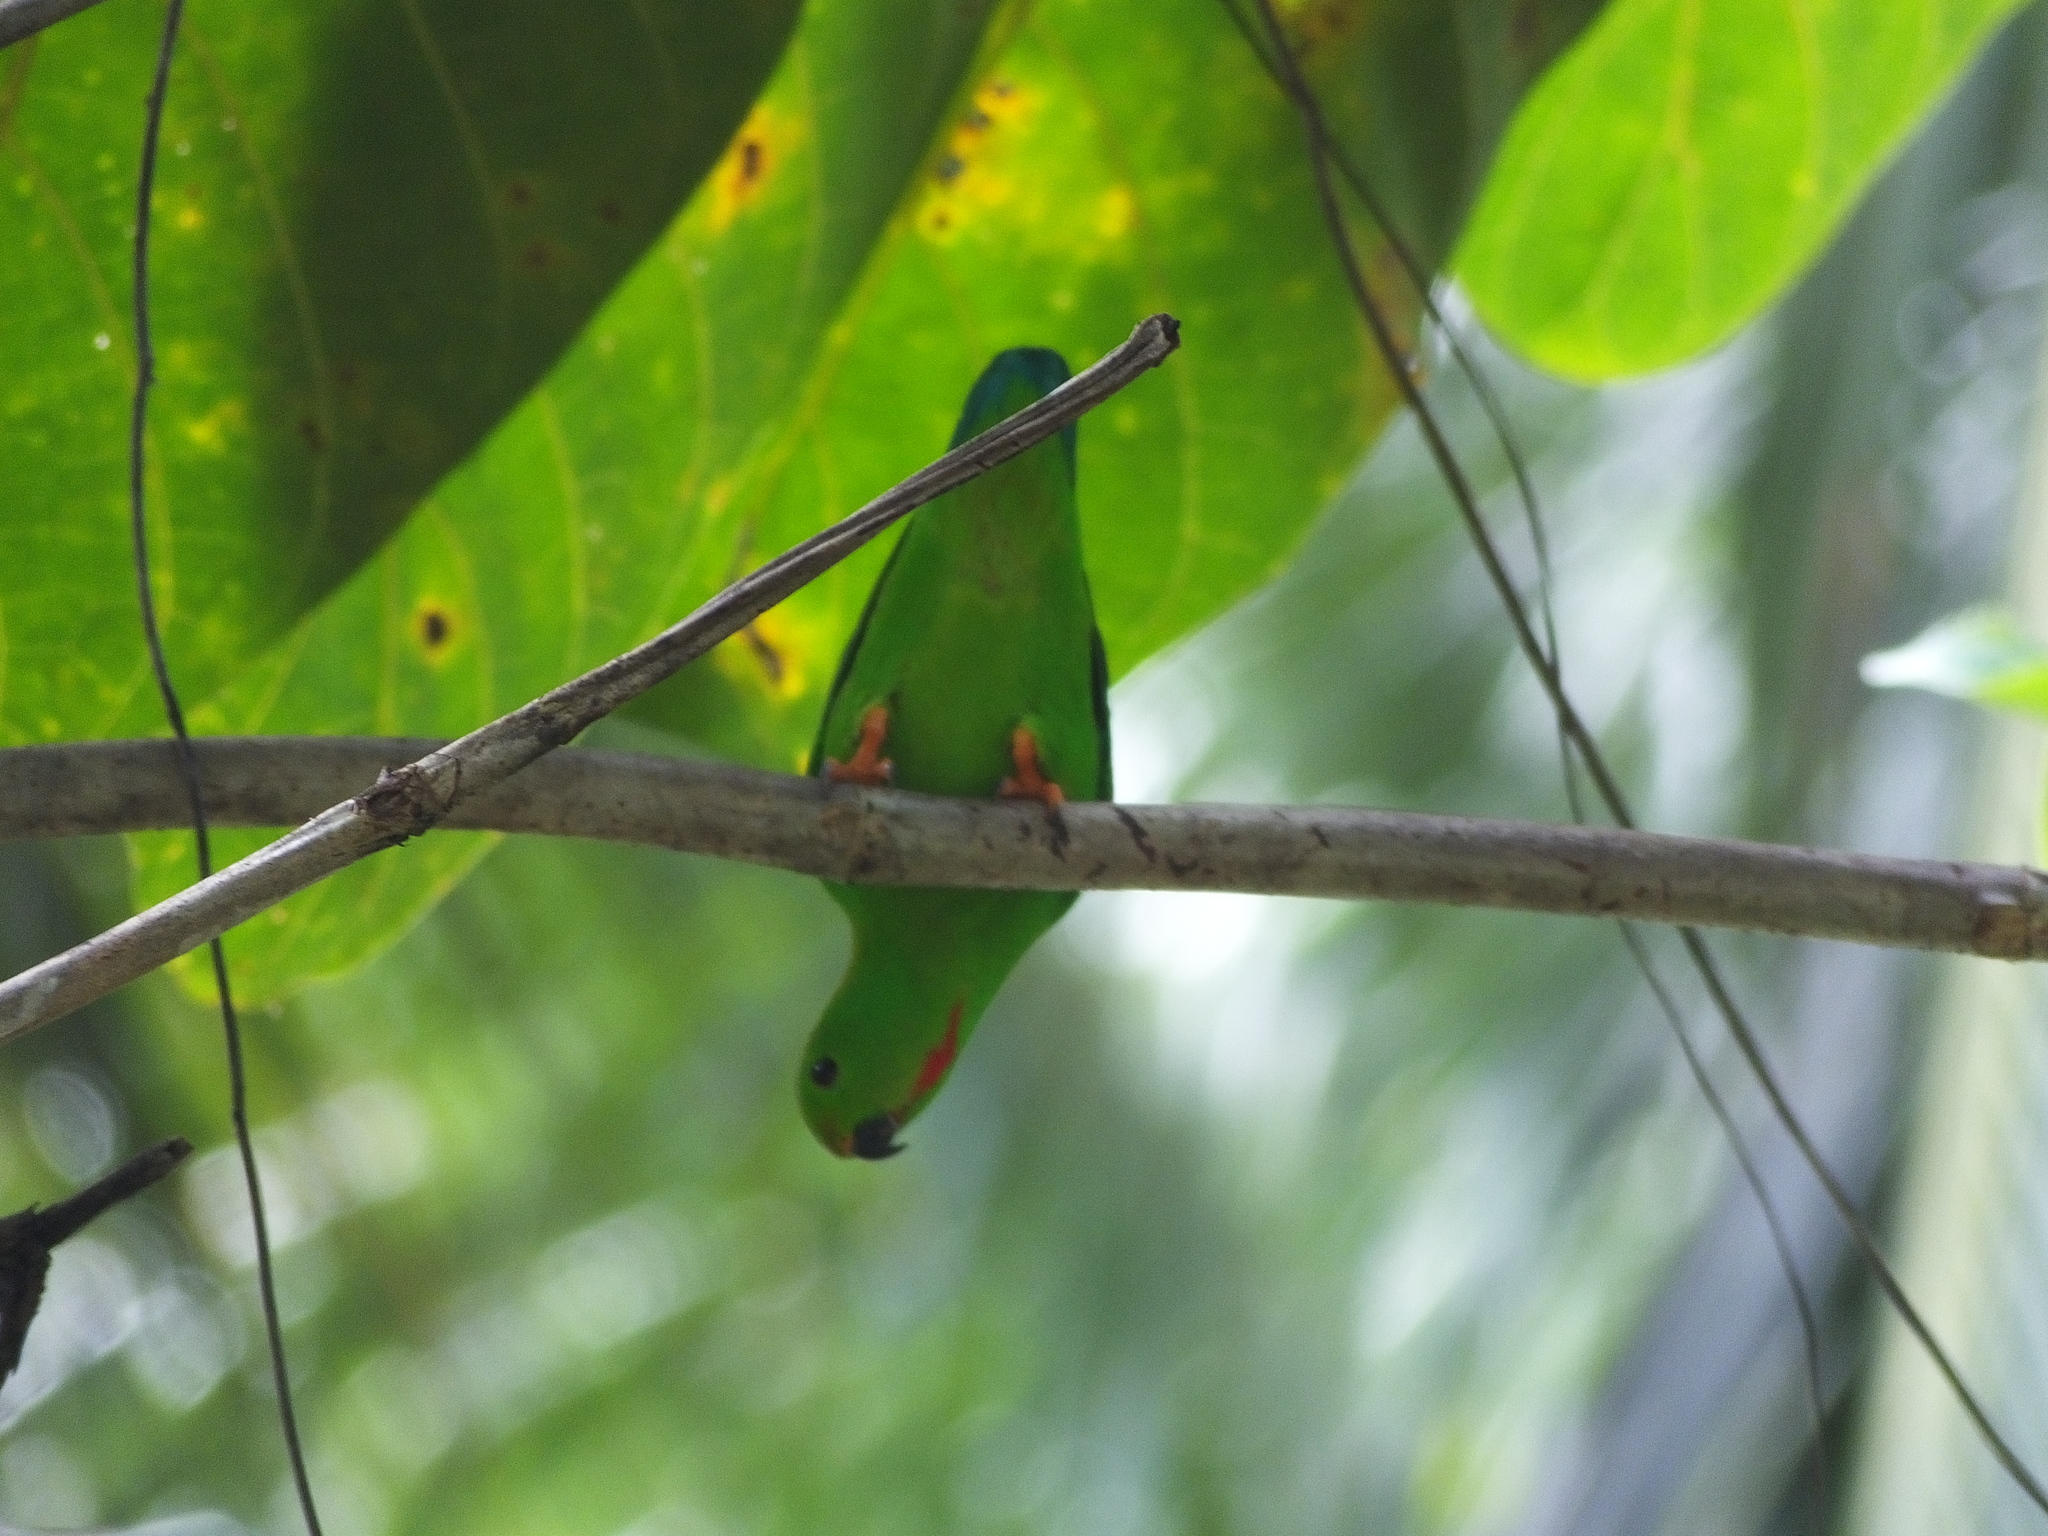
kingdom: Animalia
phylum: Chordata
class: Aves
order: Psittaciformes
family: Psittacidae
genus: Loriculus
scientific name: Loriculus stigmatus
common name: Great hanging parrot
